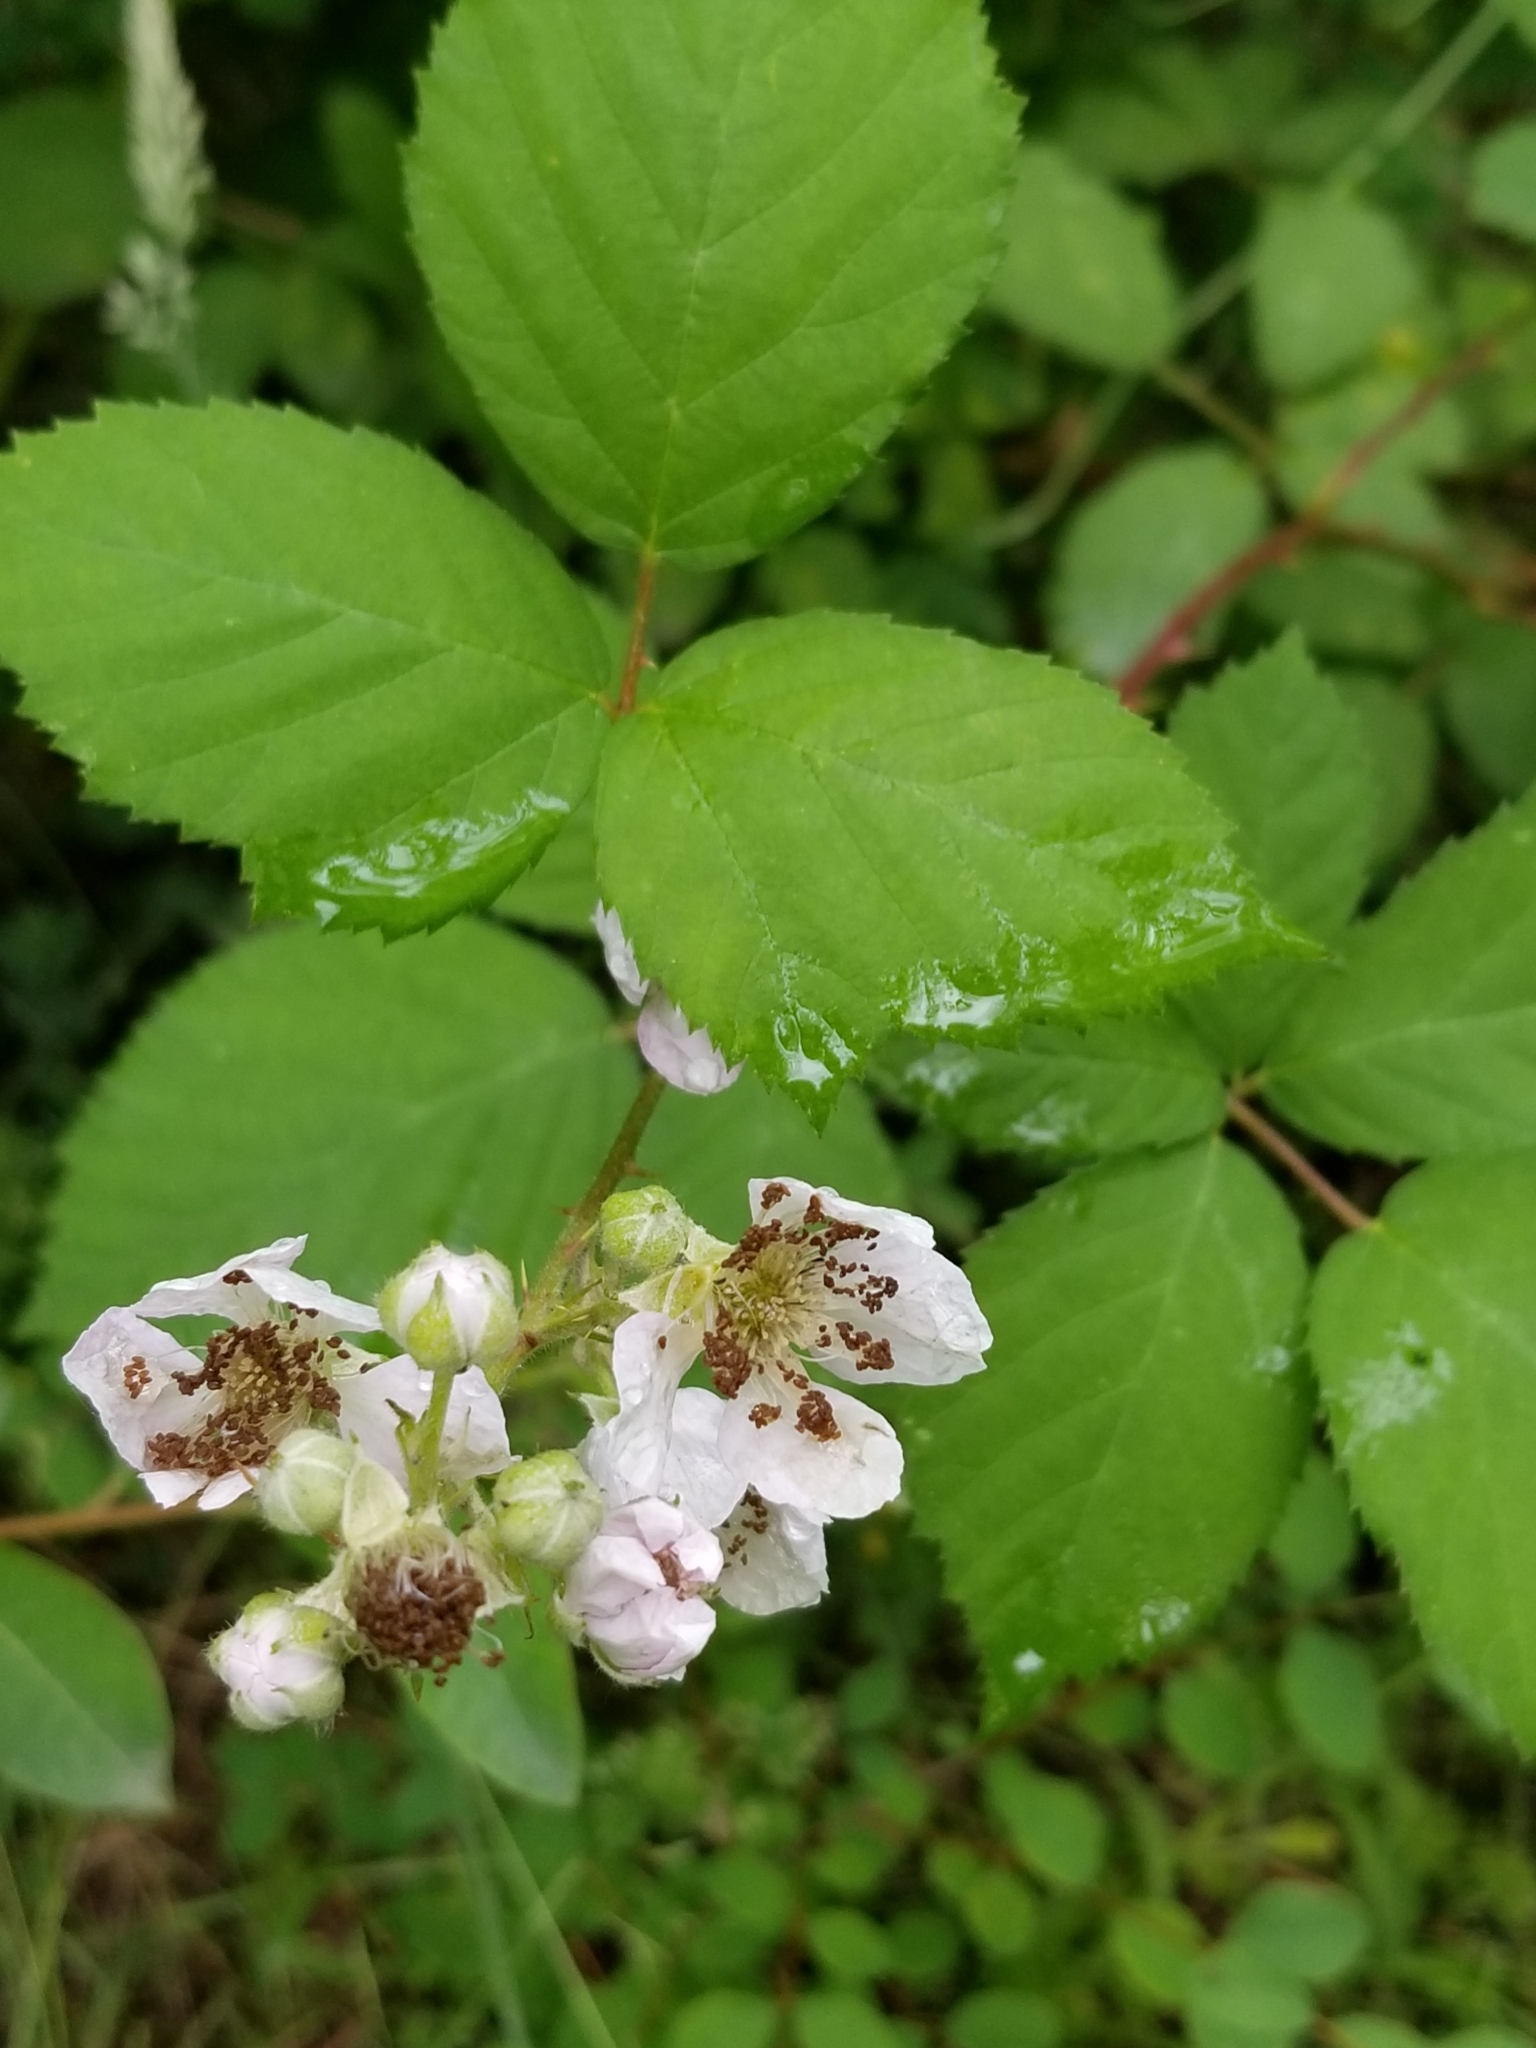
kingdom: Plantae
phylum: Tracheophyta
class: Magnoliopsida
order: Rosales
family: Rosaceae
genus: Rubus
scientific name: Rubus bifrons
